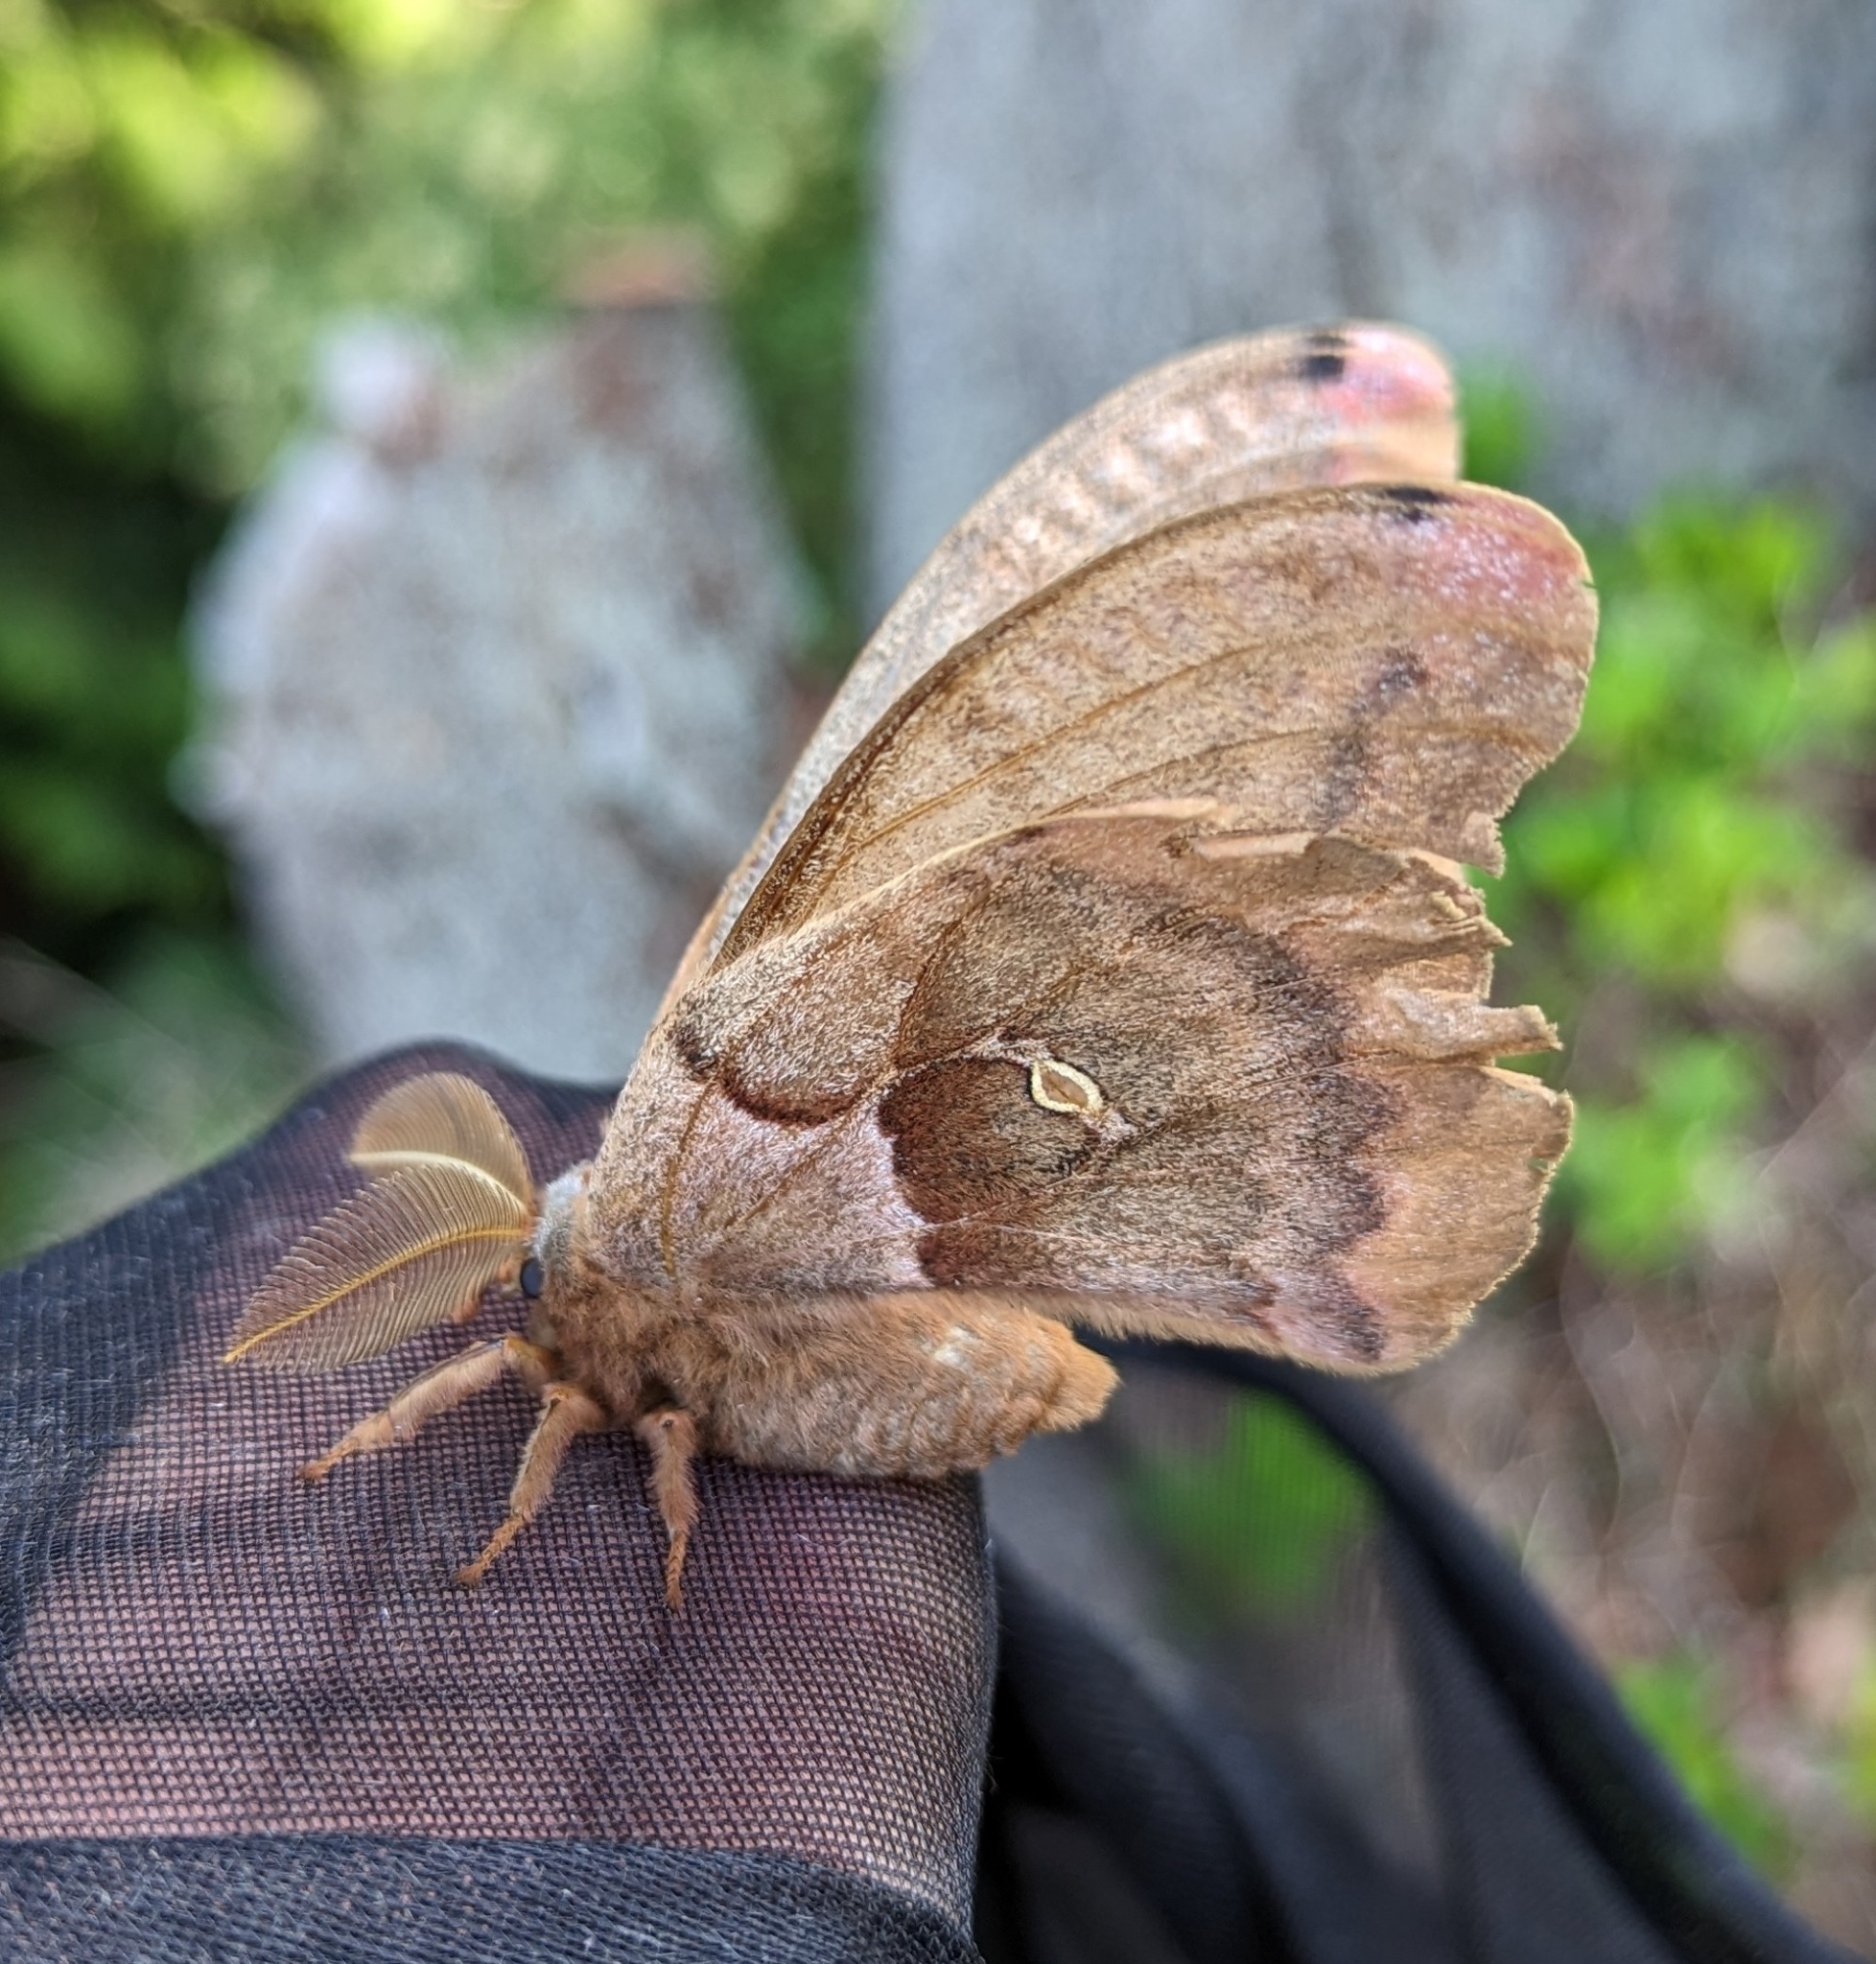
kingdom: Animalia
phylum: Arthropoda
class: Insecta
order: Lepidoptera
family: Saturniidae
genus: Antheraea
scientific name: Antheraea polyphemus
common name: Polyphemus moth
